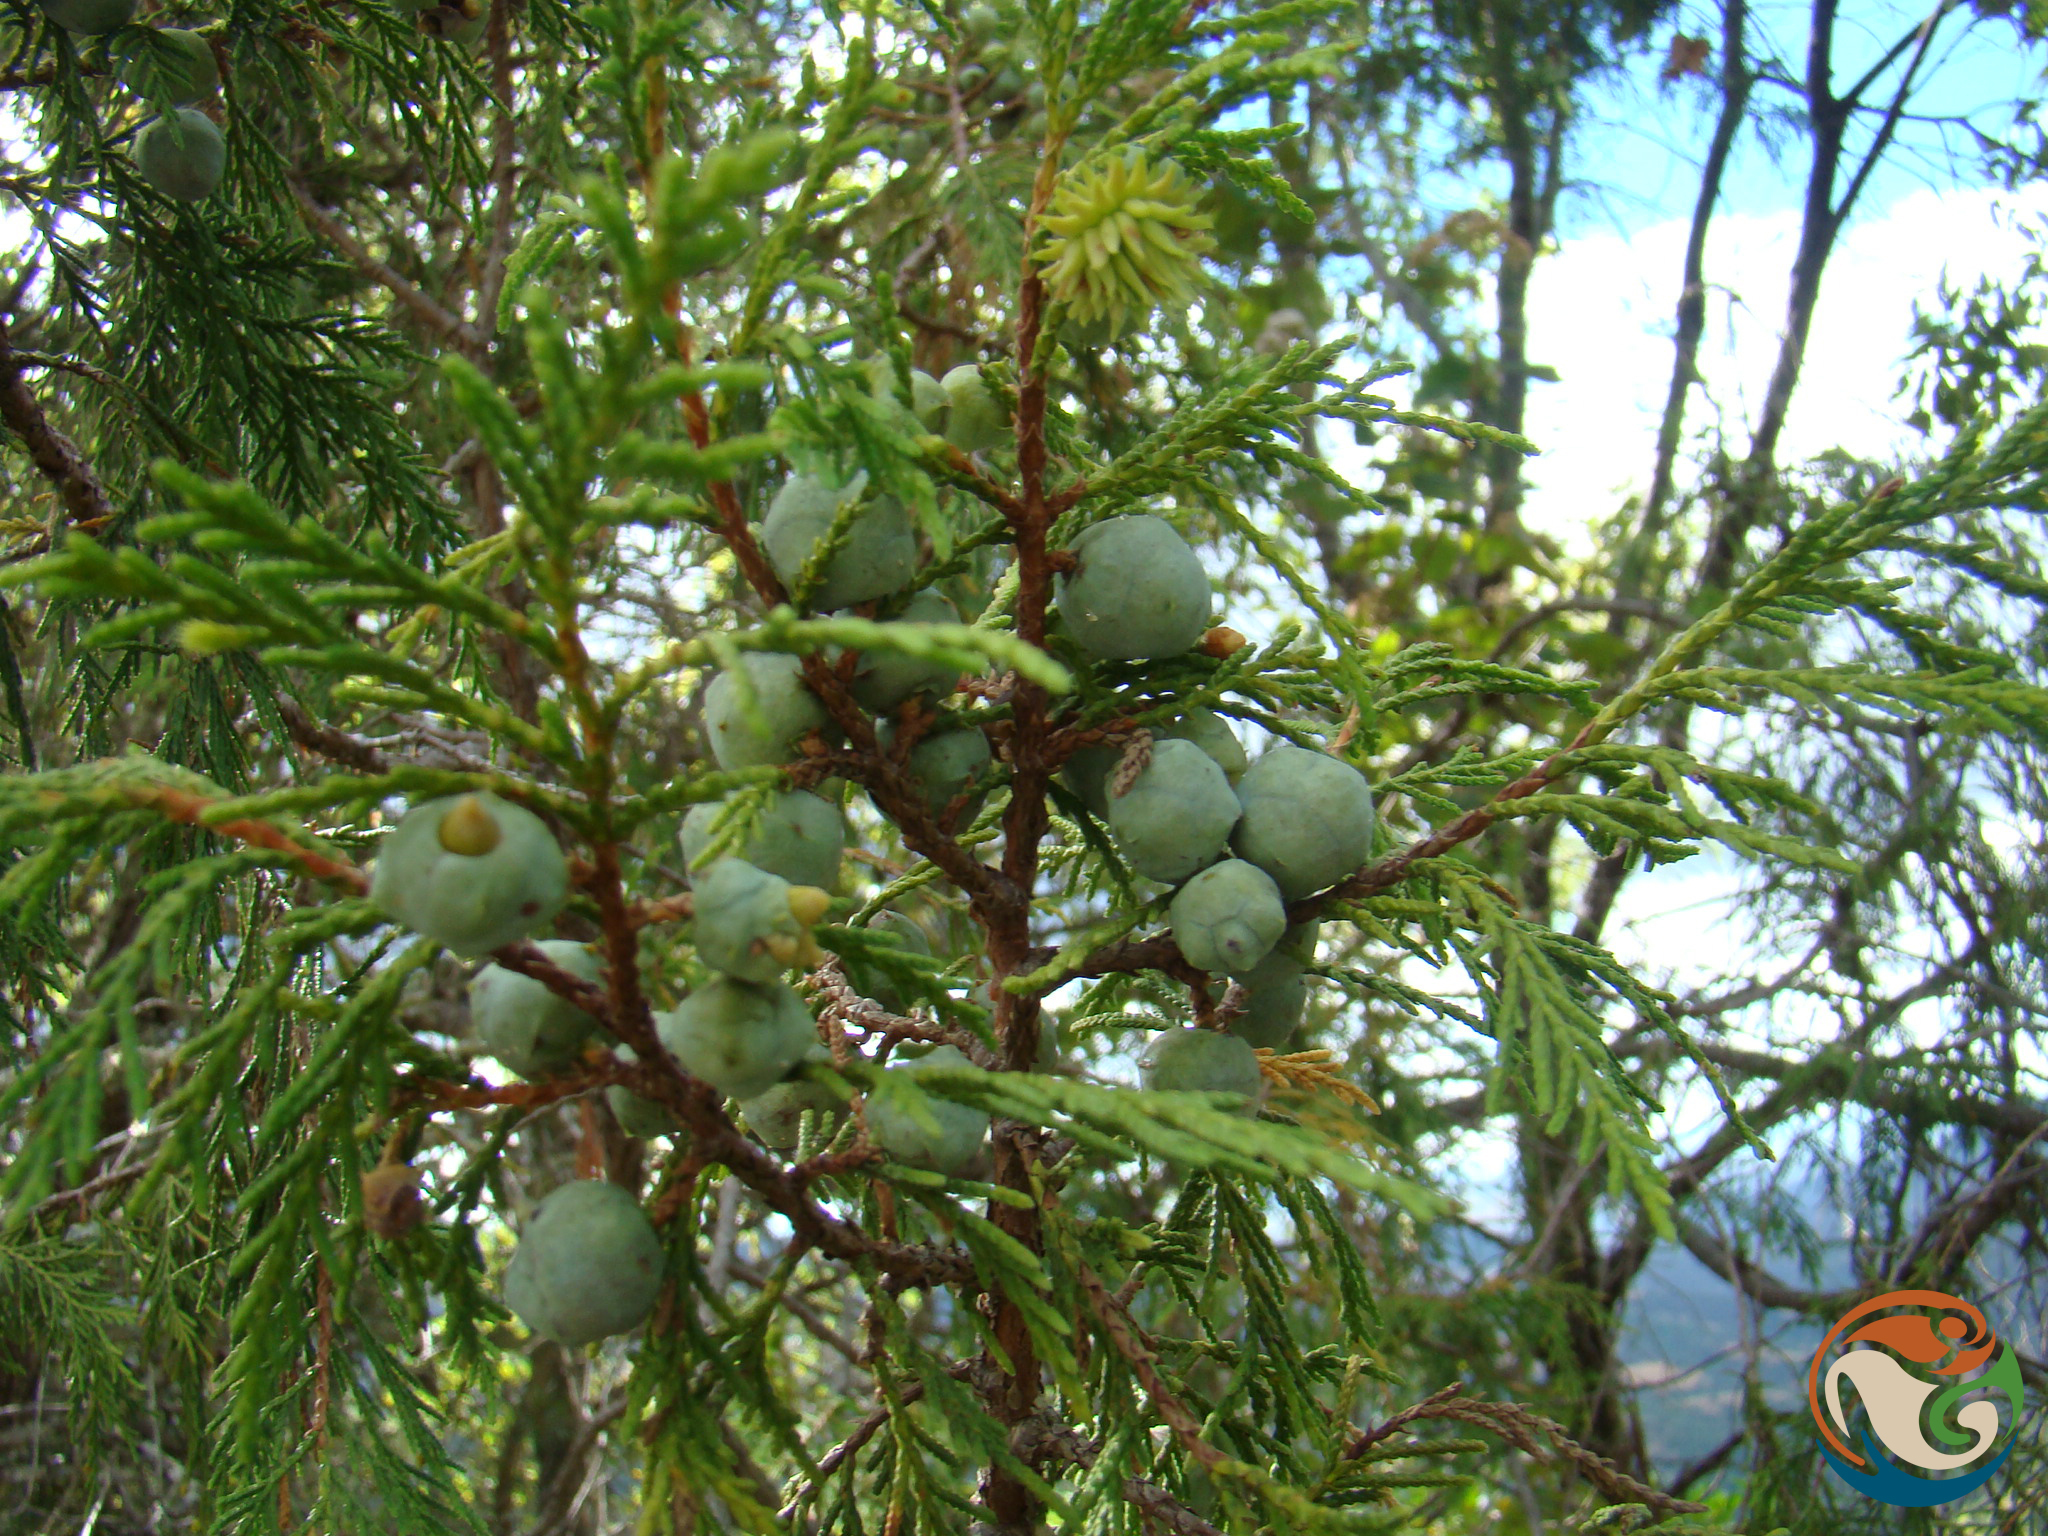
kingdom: Plantae
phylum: Tracheophyta
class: Pinopsida
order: Pinales
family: Cupressaceae
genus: Juniperus
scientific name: Juniperus flaccida
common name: Drooping juniper
